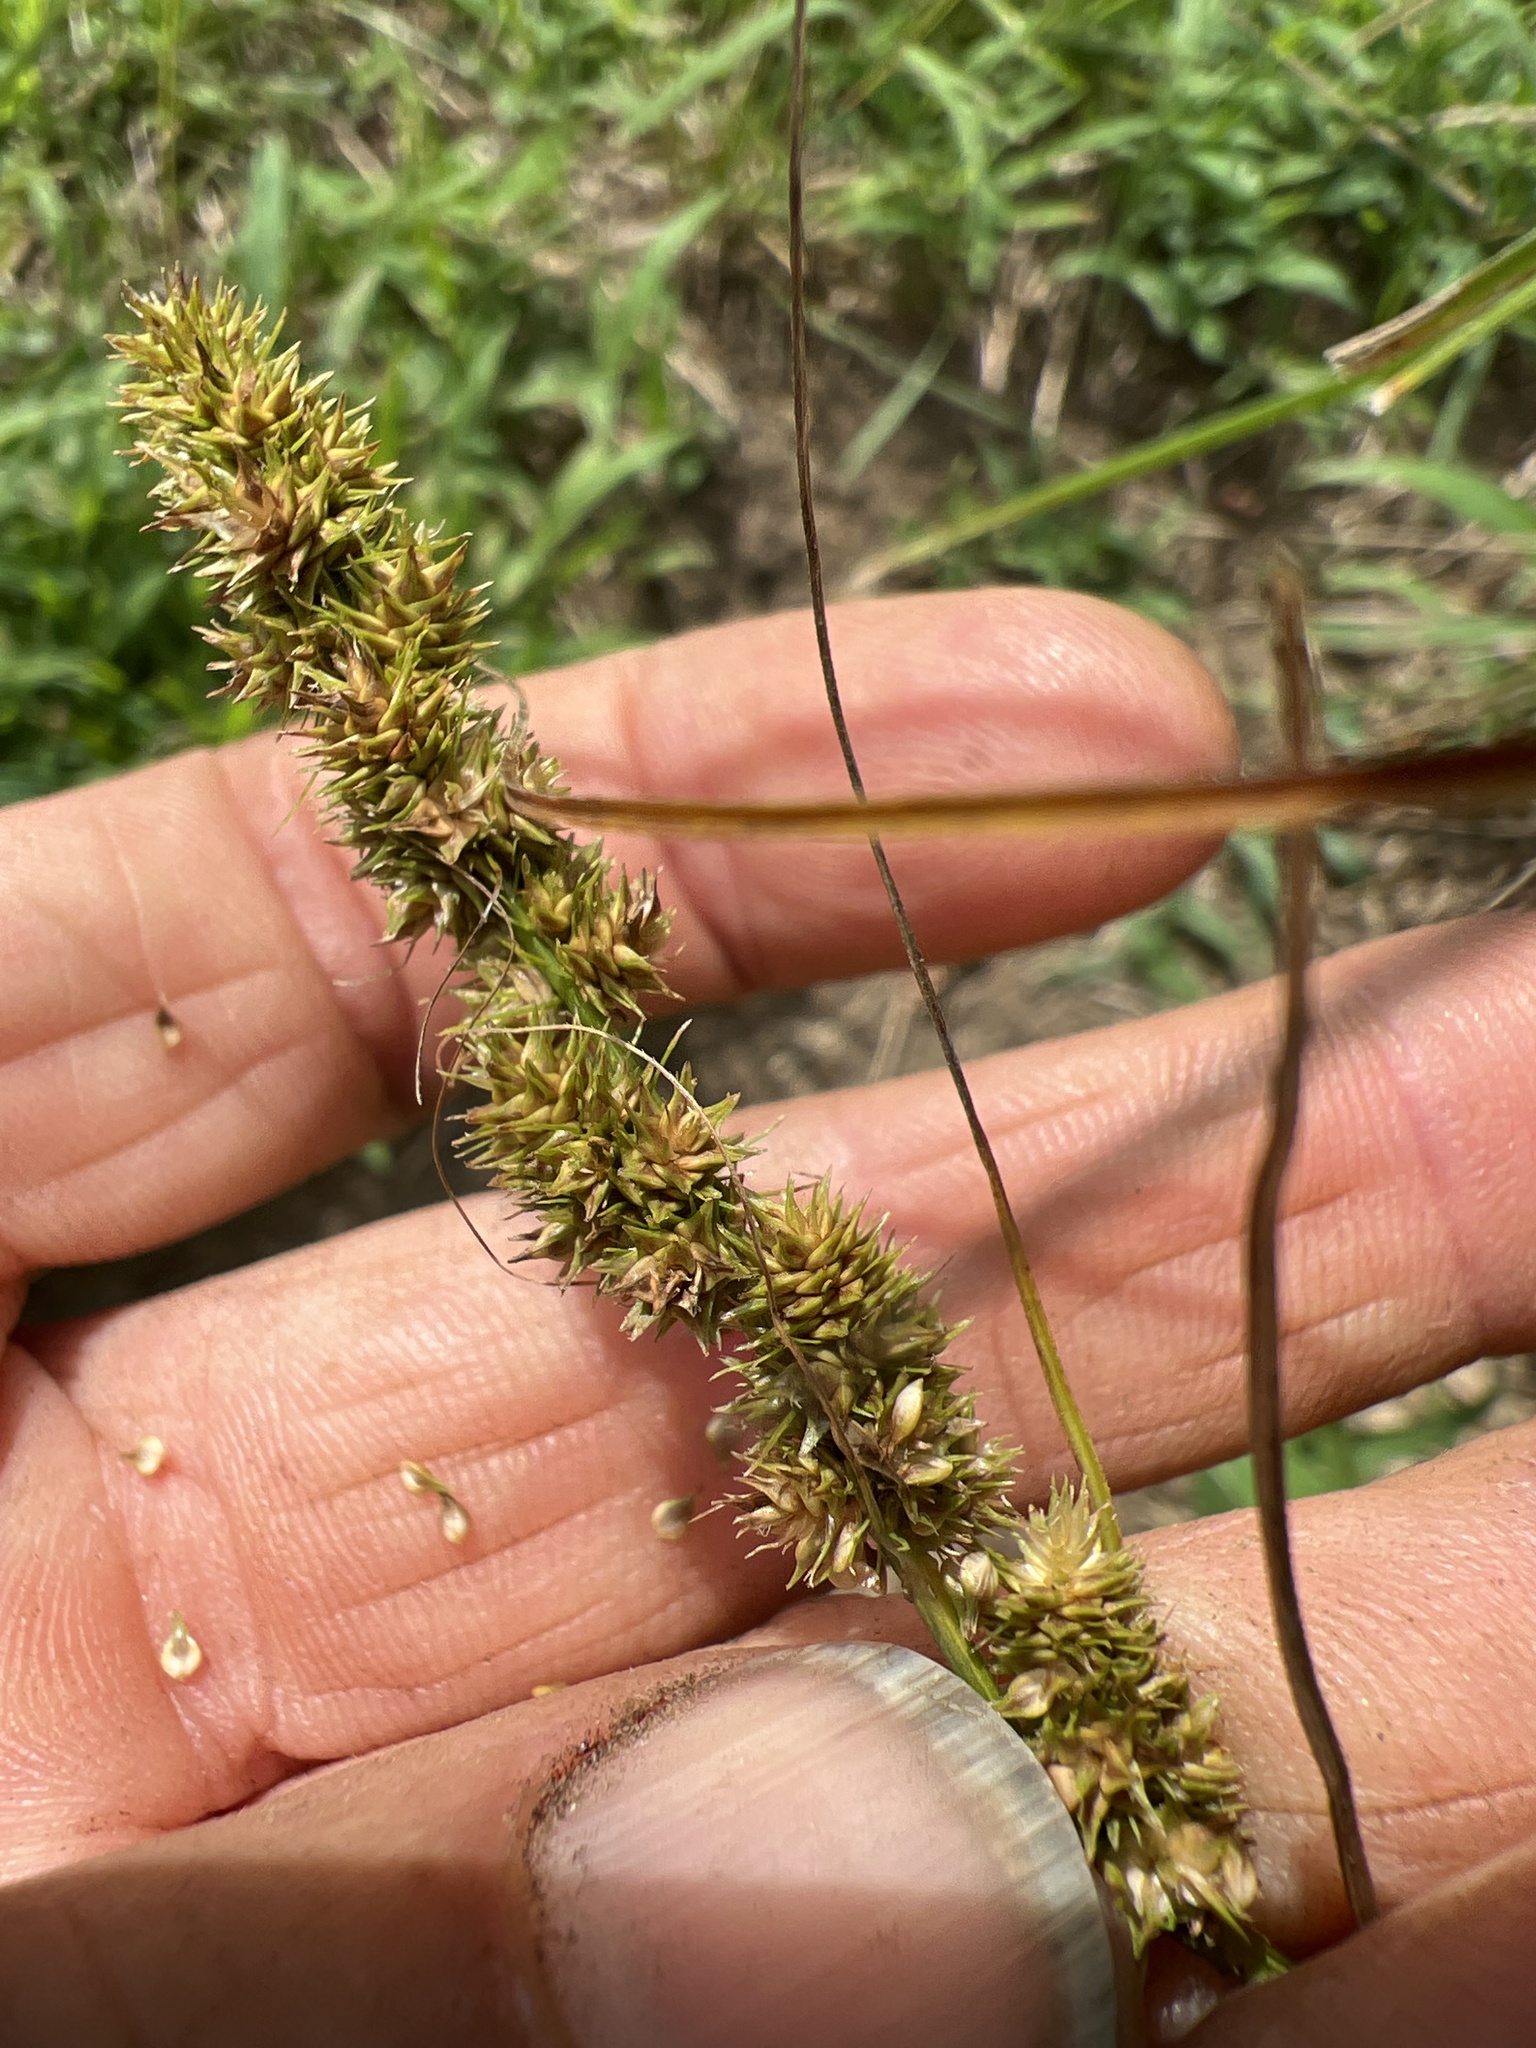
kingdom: Plantae
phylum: Tracheophyta
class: Liliopsida
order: Poales
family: Cyperaceae
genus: Carex
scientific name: Carex vulpinoidea
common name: American fox-sedge
